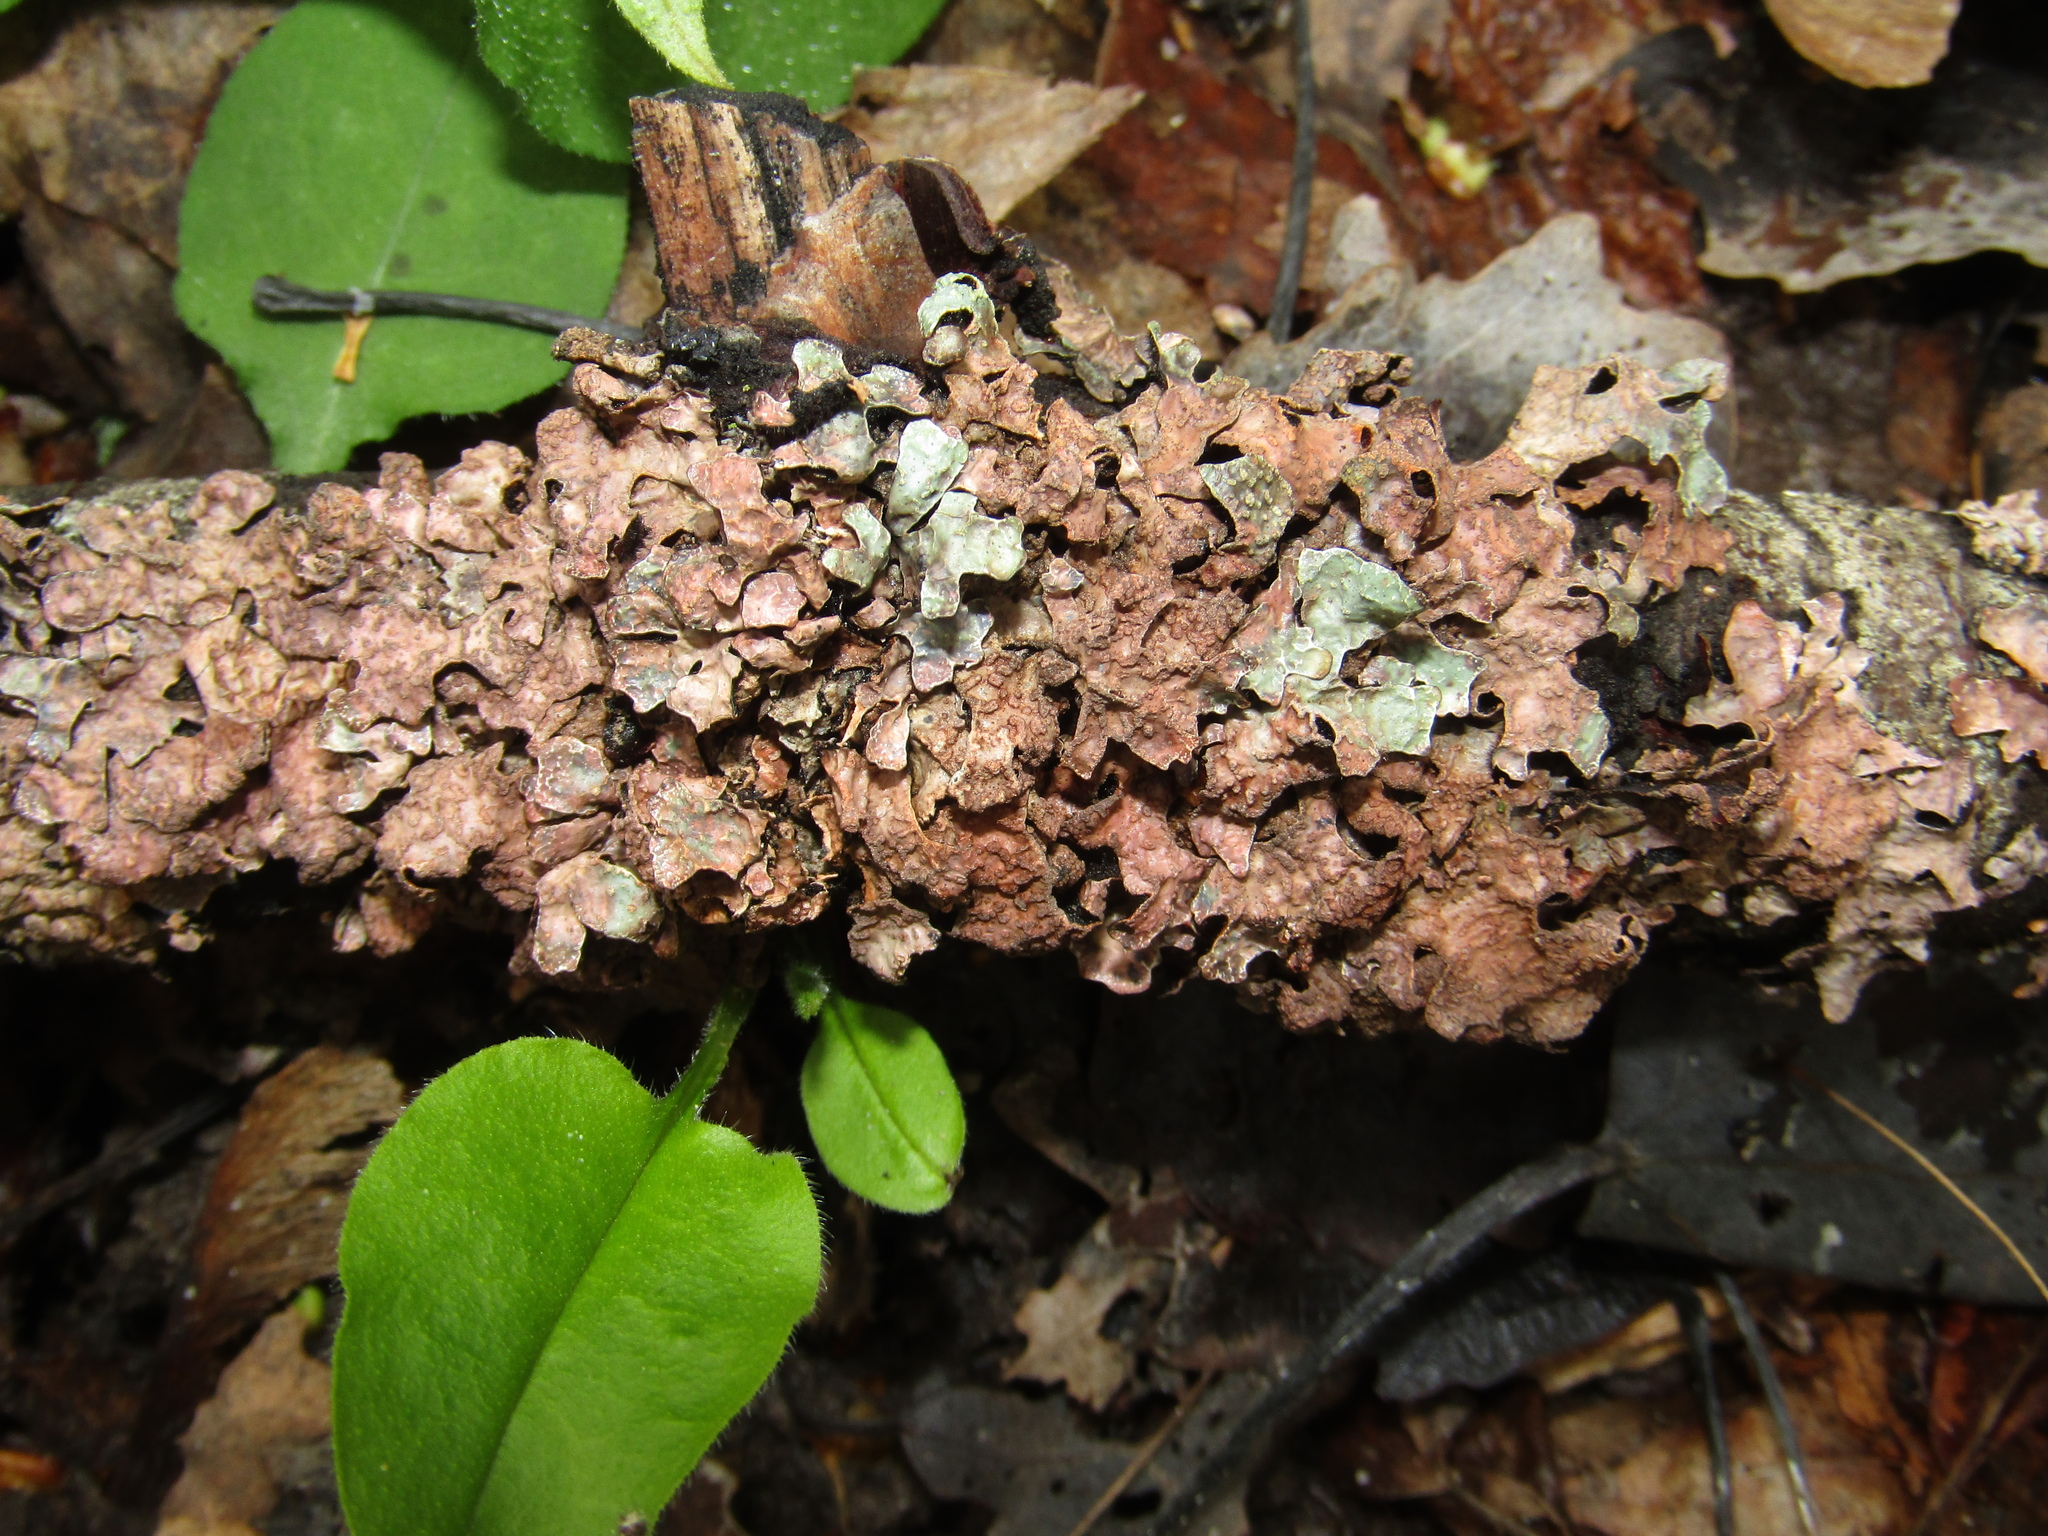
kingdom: Fungi
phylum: Ascomycota
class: Lecanoromycetes
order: Lecanorales
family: Parmeliaceae
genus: Parmelia
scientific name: Parmelia sulcata
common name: Netted shield lichen
